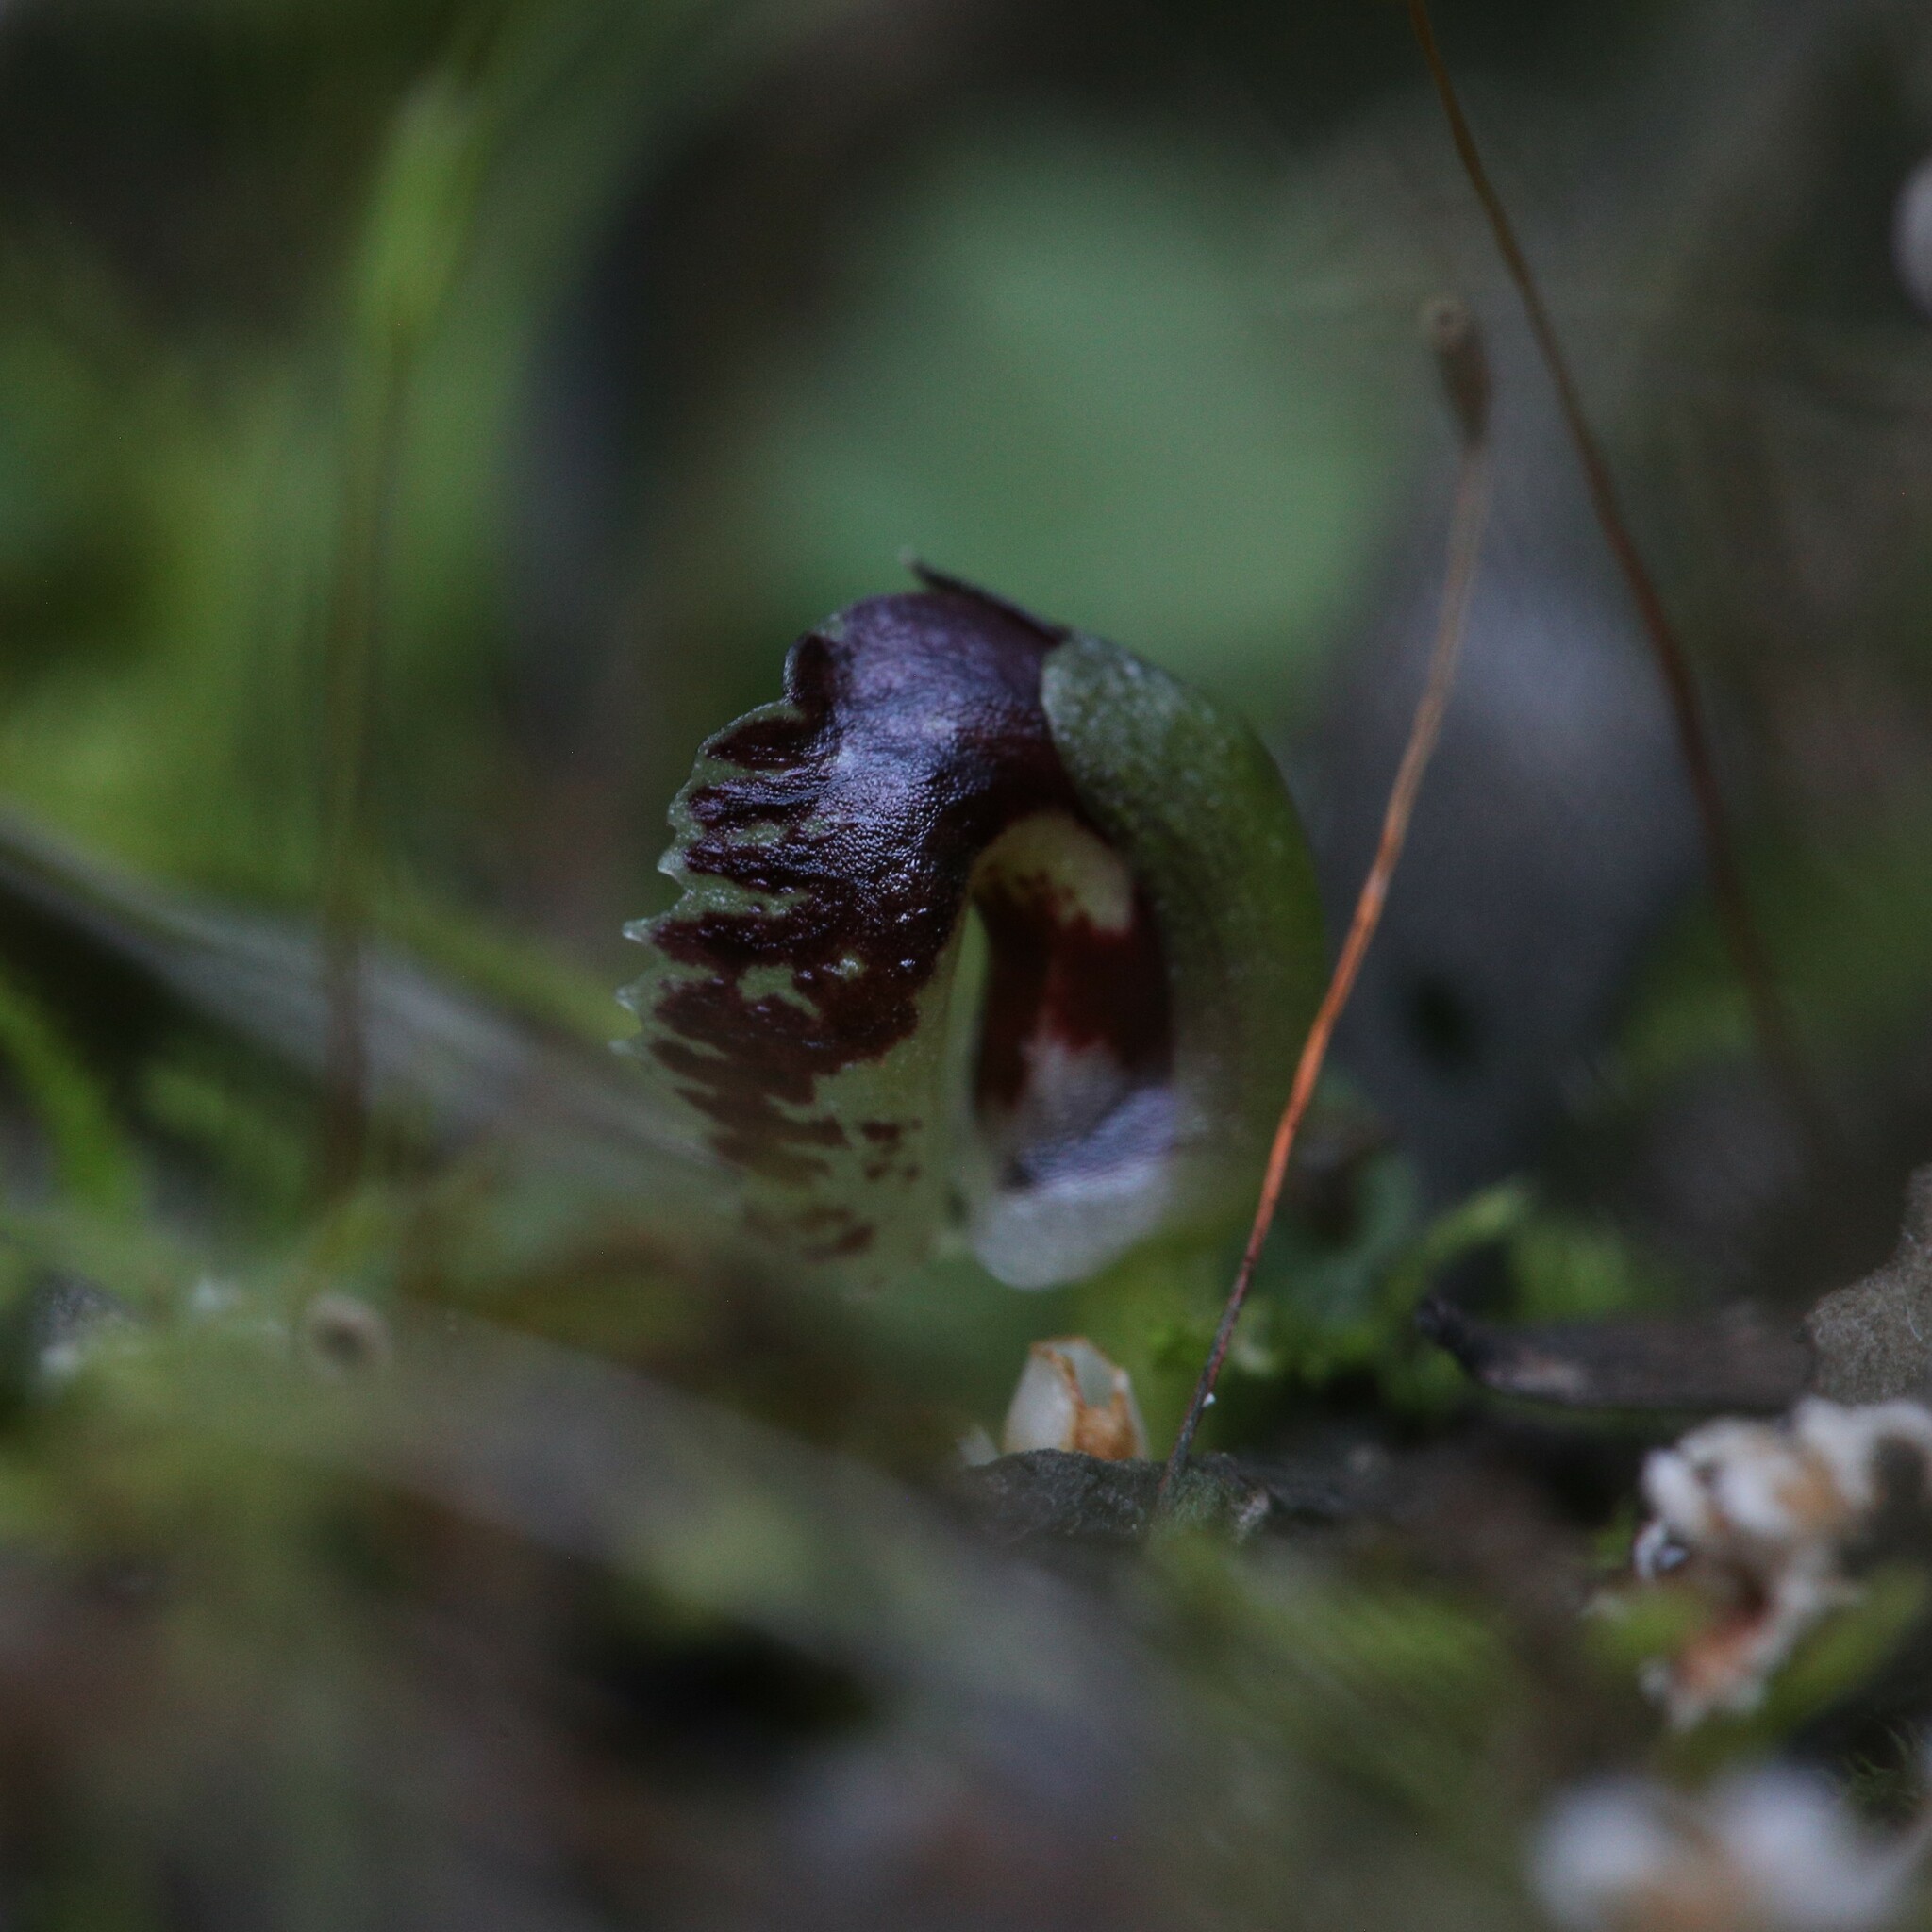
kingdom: Plantae
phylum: Tracheophyta
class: Liliopsida
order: Asparagales
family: Orchidaceae
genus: Corybas
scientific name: Corybas despectans
